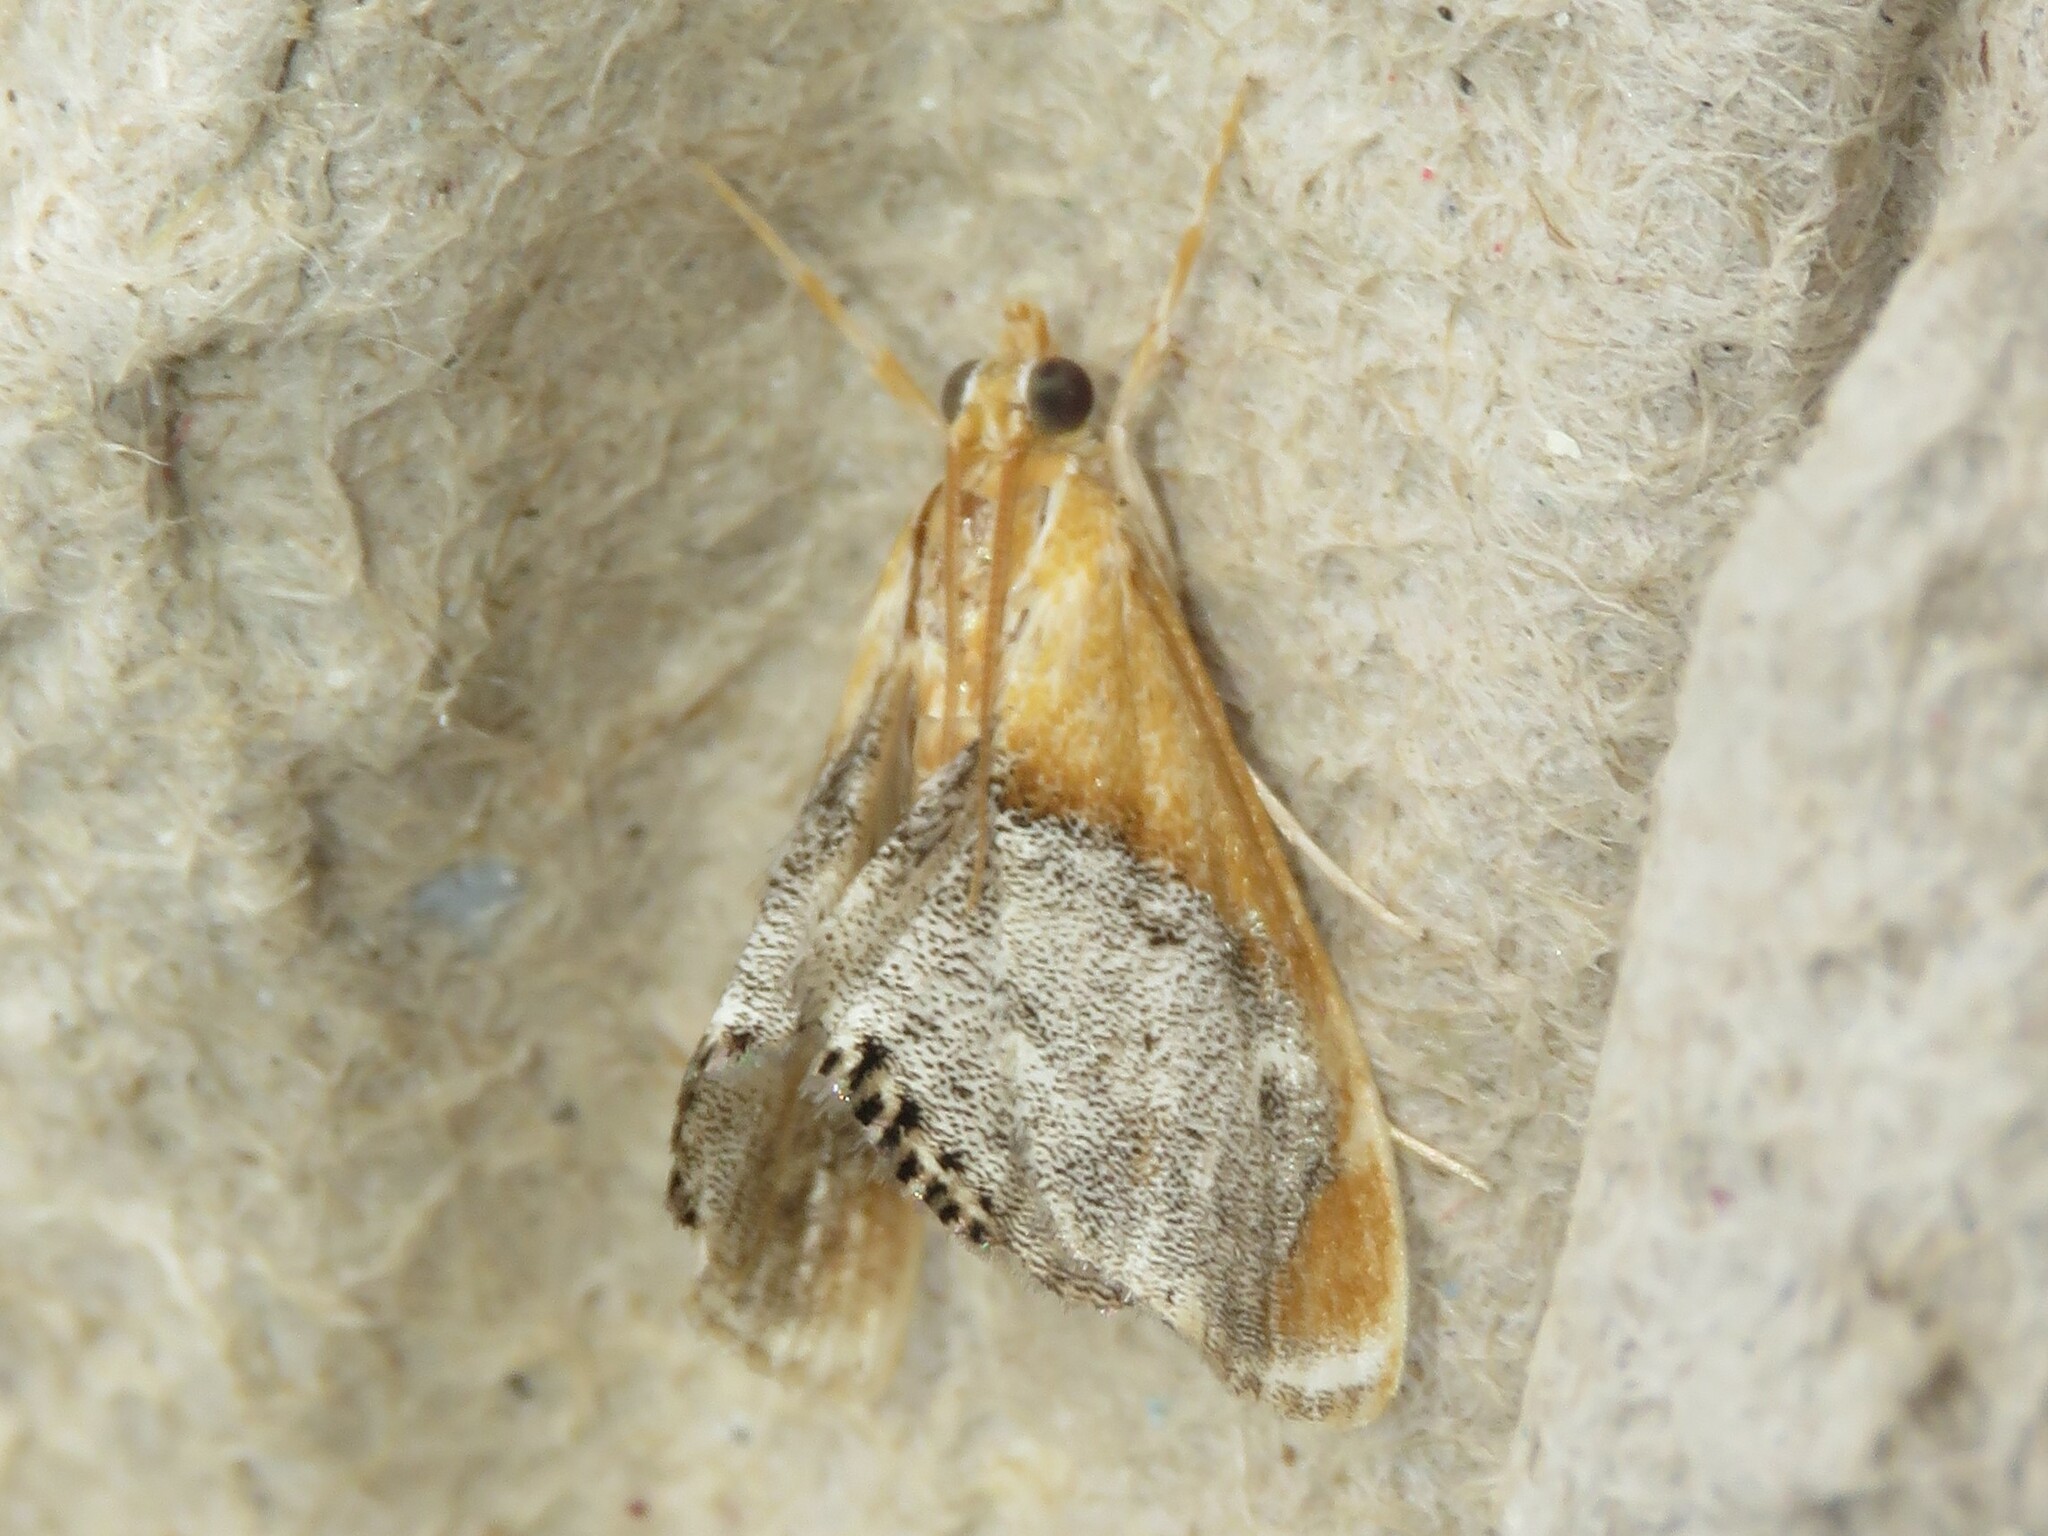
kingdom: Animalia
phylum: Arthropoda
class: Insecta
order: Lepidoptera
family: Crambidae
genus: Chalcoela
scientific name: Chalcoela iphitalis
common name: Sooty-winged chalcoela moth
